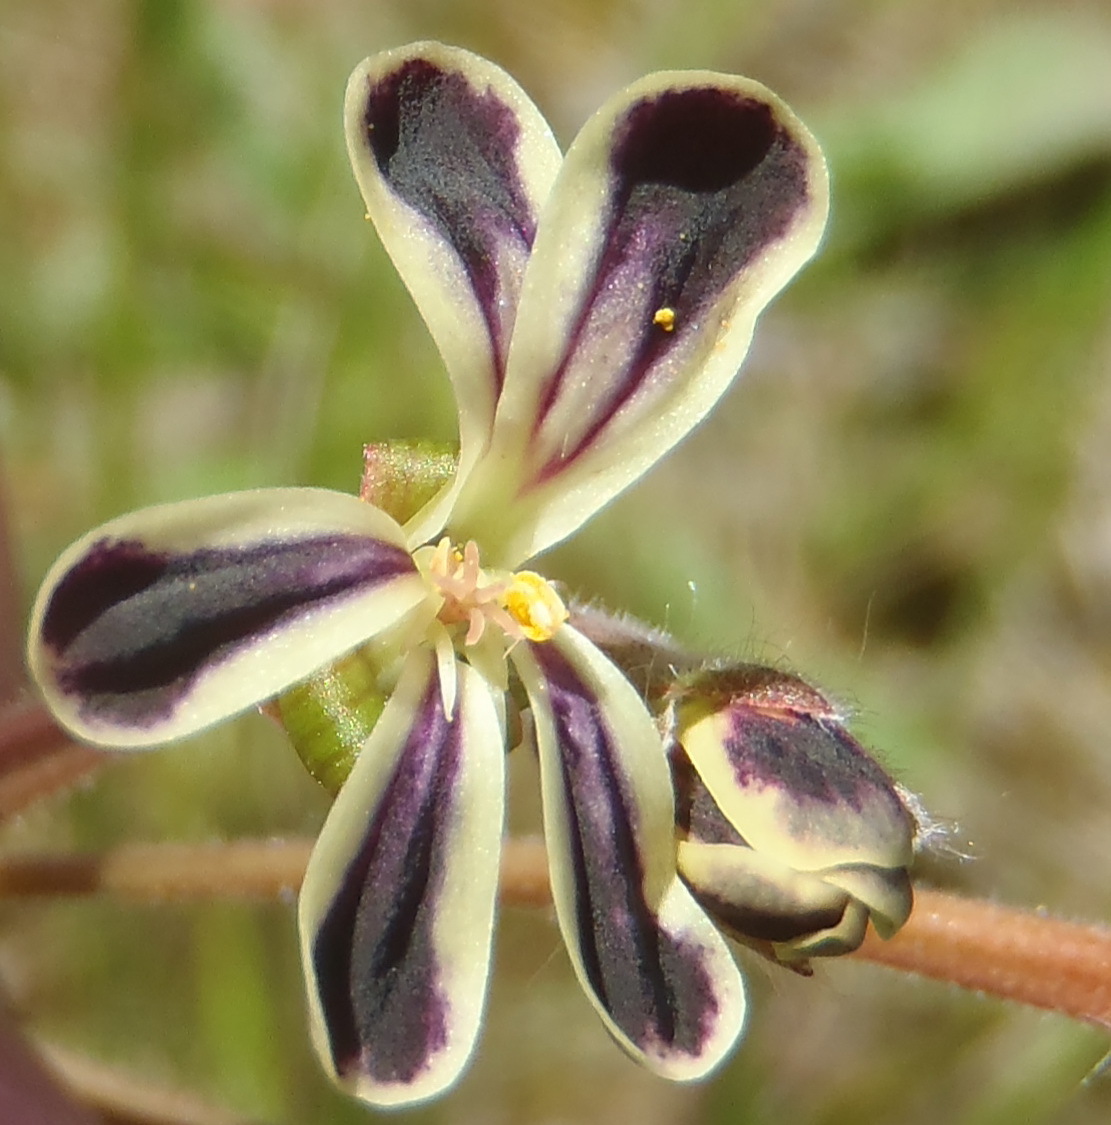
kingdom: Plantae
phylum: Tracheophyta
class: Magnoliopsida
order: Geraniales
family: Geraniaceae
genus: Pelargonium
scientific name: Pelargonium lobatum
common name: Vine-leaf pelargonium
